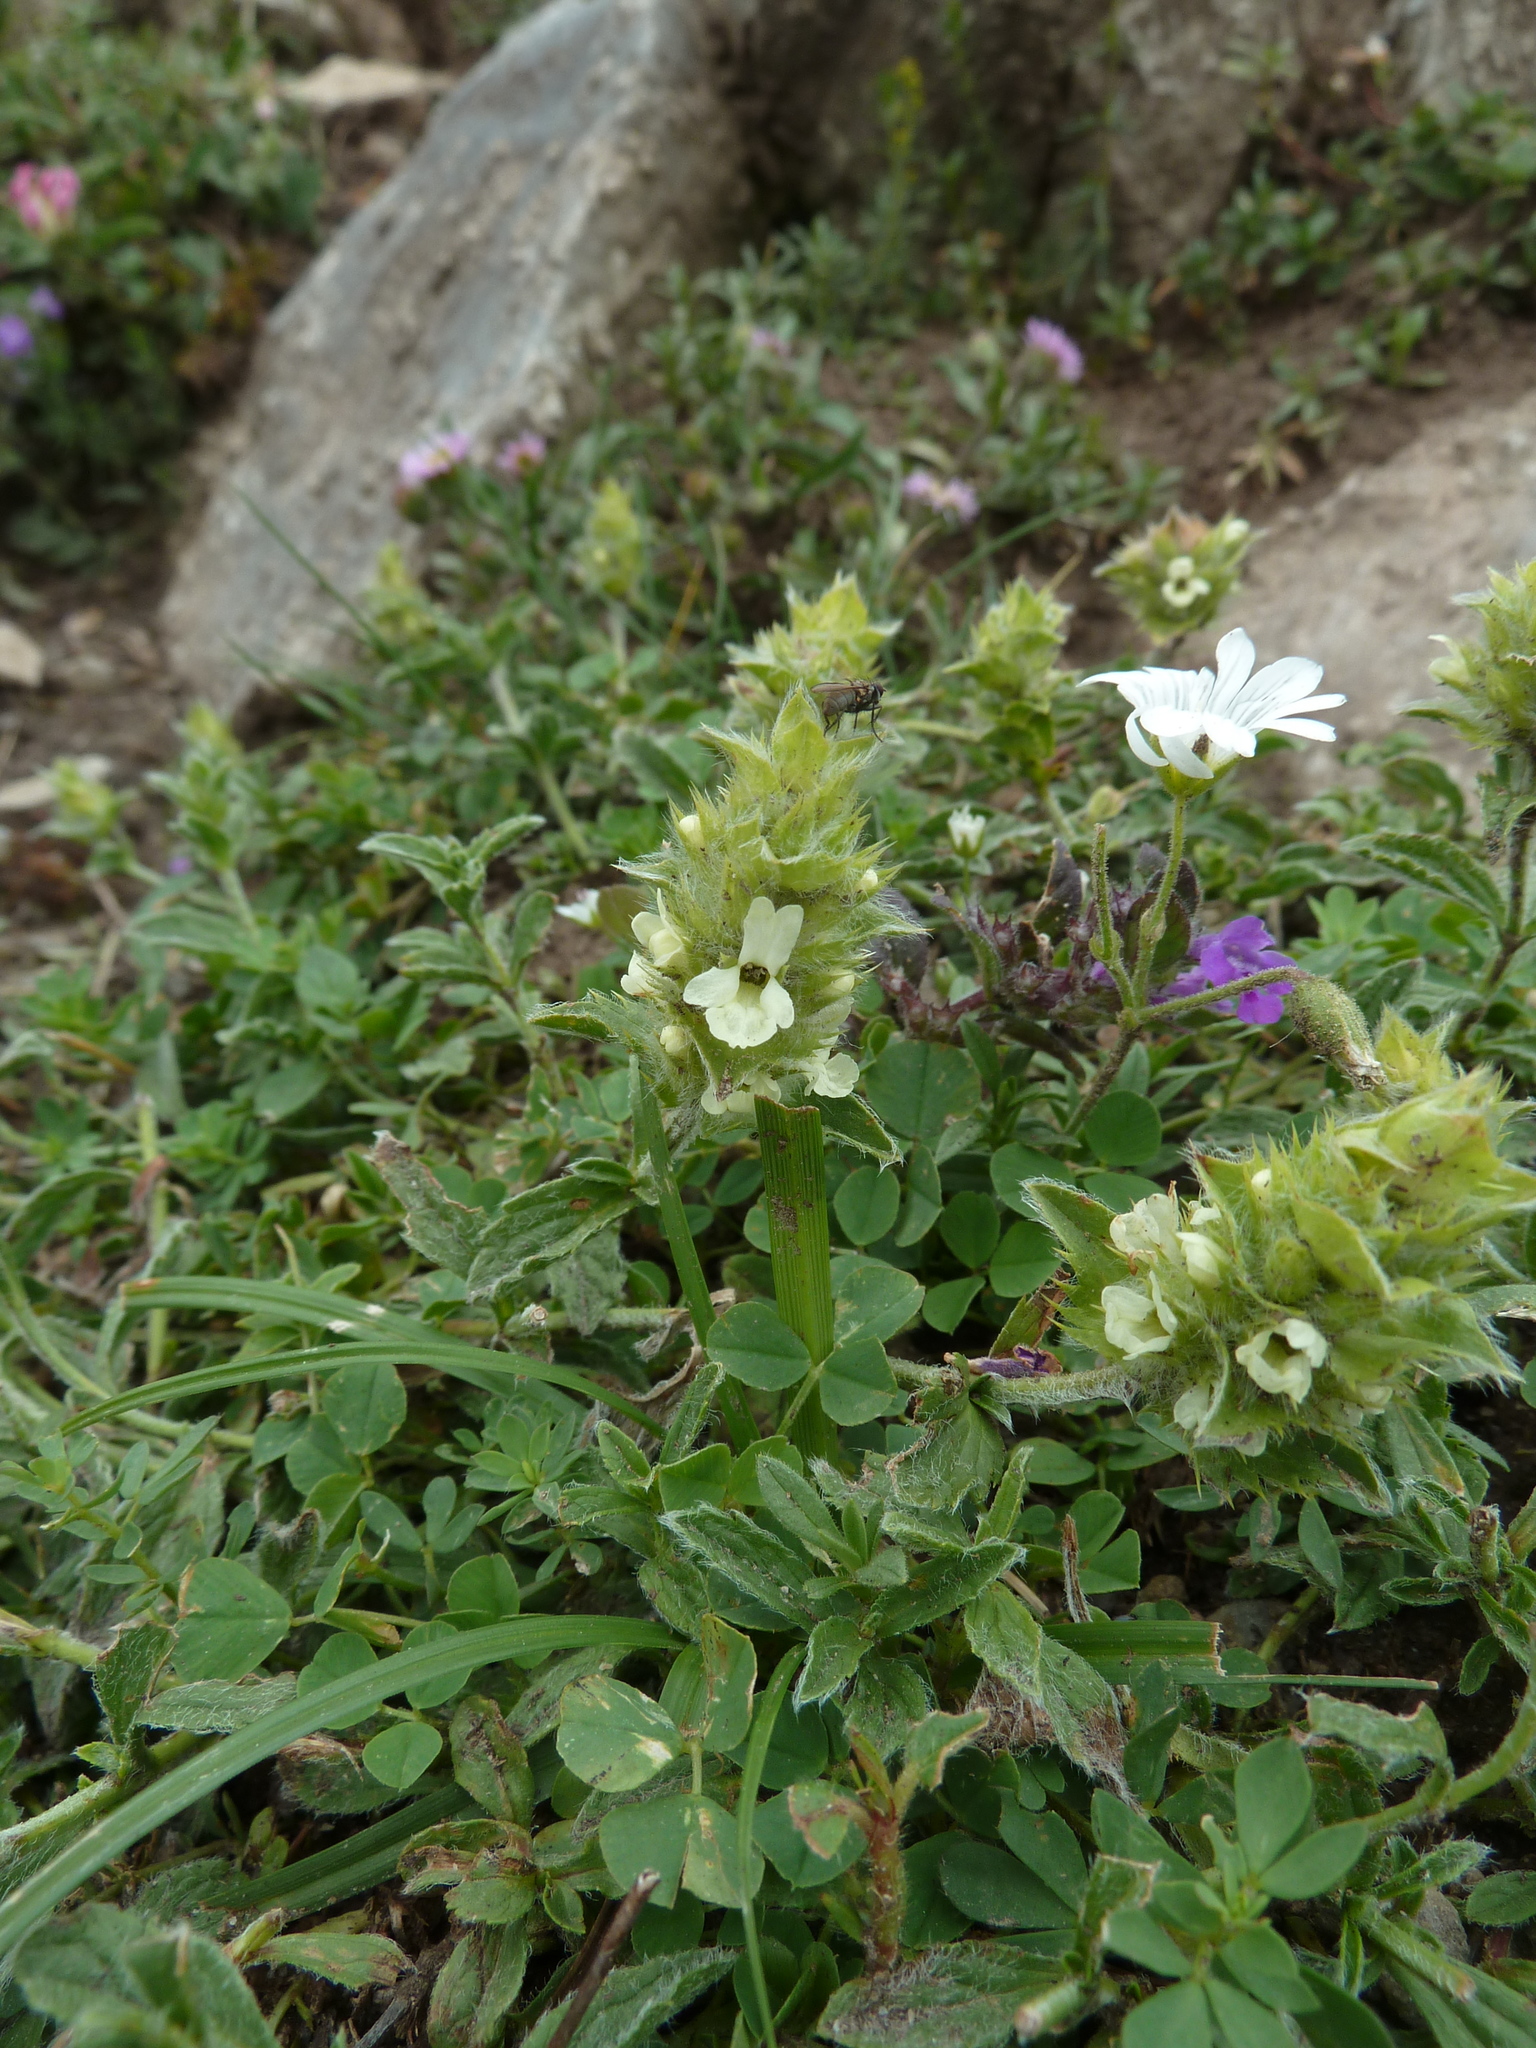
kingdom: Plantae
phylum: Tracheophyta
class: Magnoliopsida
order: Lamiales
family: Lamiaceae
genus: Sideritis
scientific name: Sideritis hyssopifolia
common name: Mountain tea
